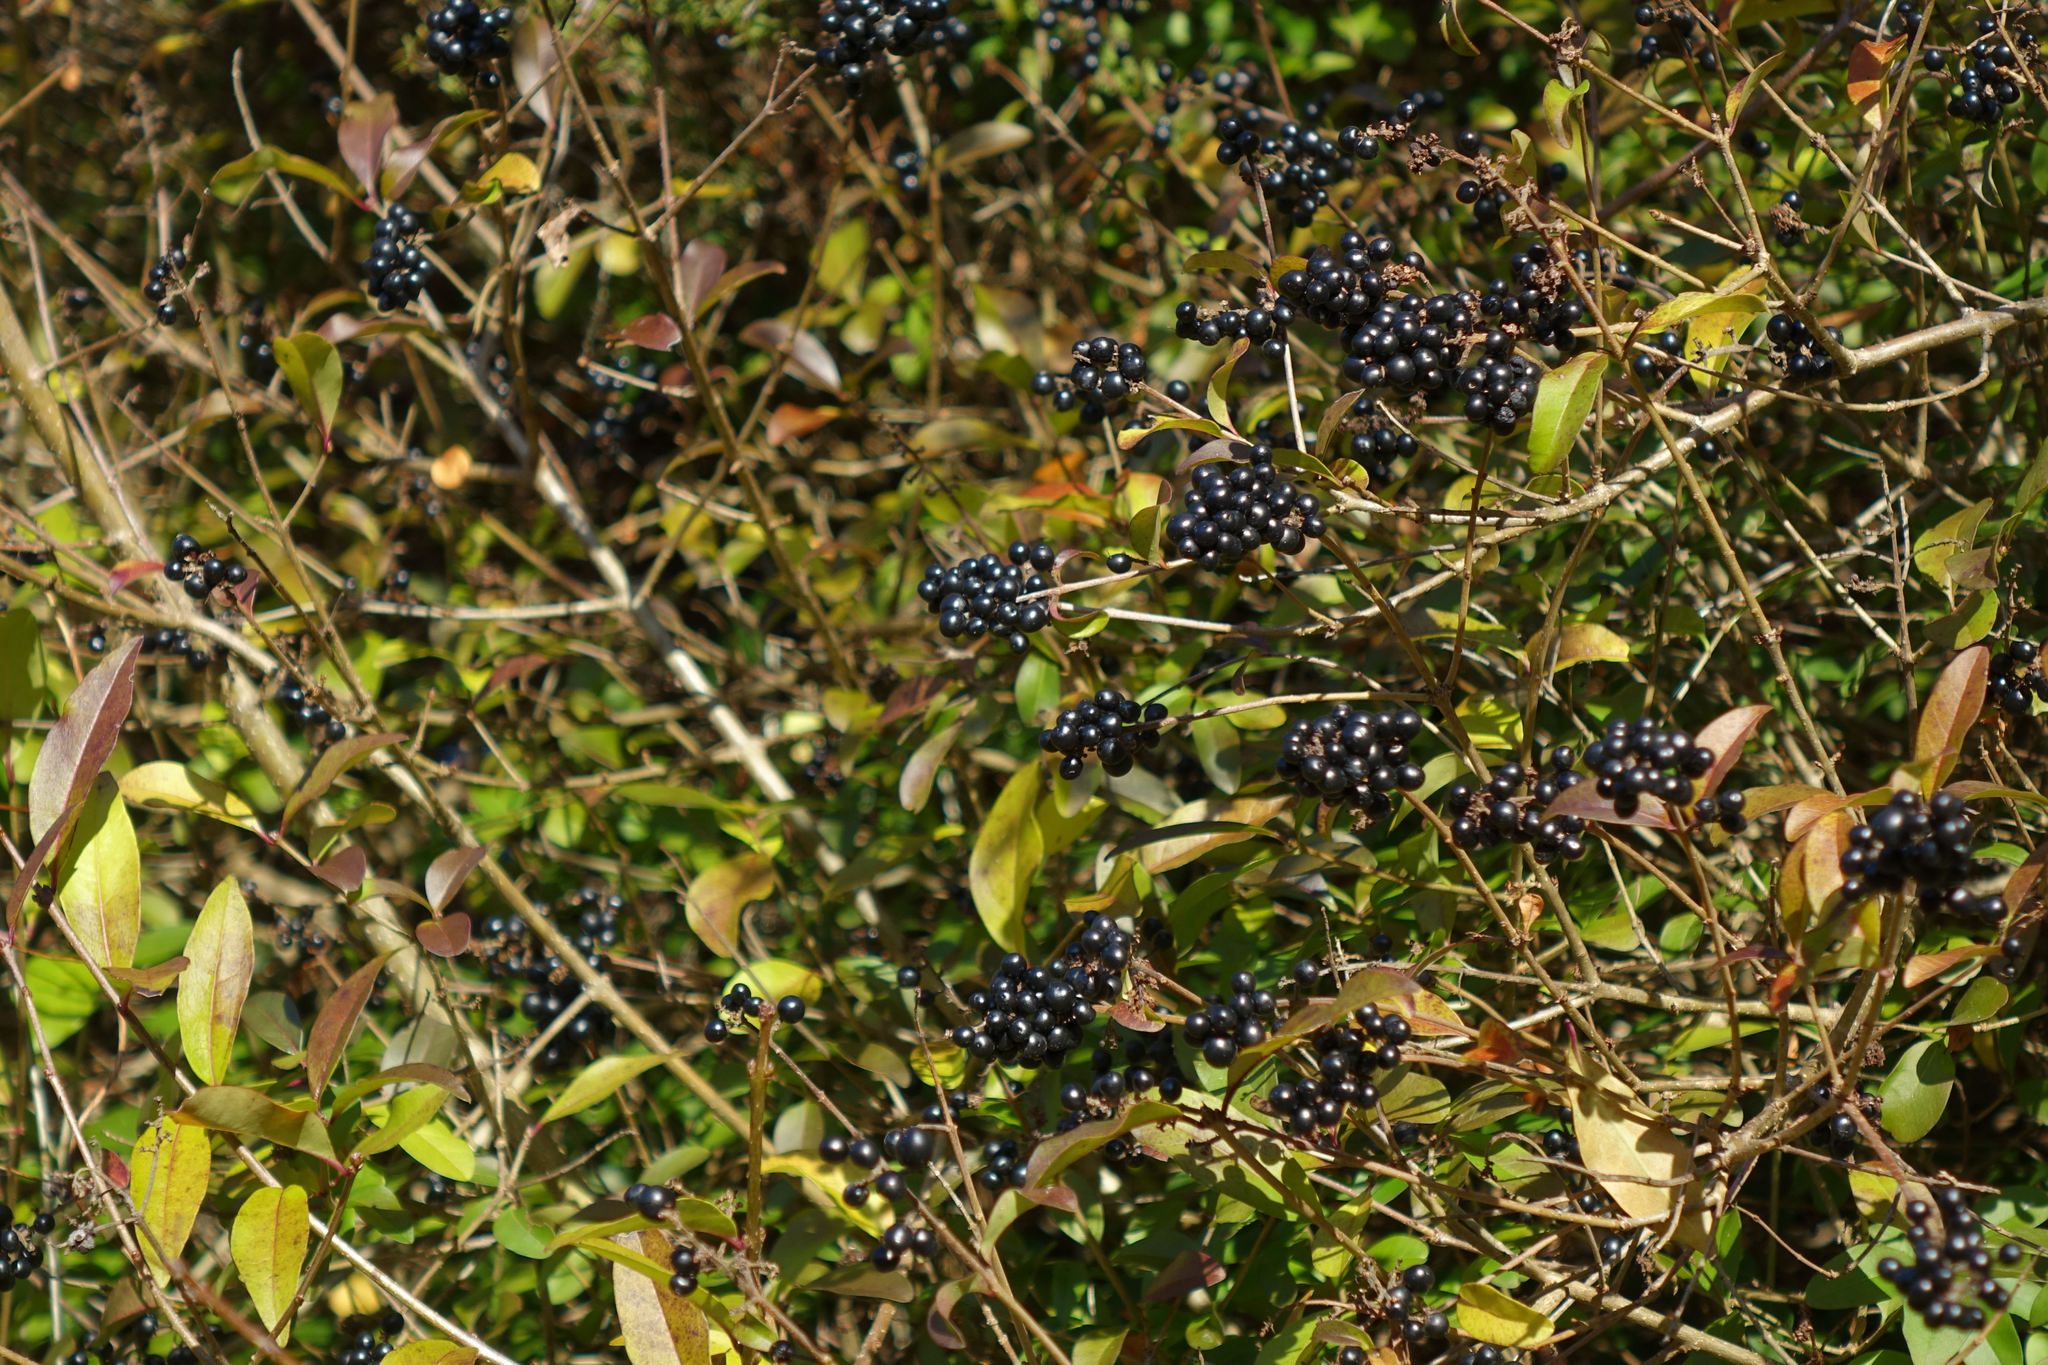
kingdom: Plantae
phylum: Tracheophyta
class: Magnoliopsida
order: Lamiales
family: Oleaceae
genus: Ligustrum
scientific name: Ligustrum vulgare
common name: Wild privet
